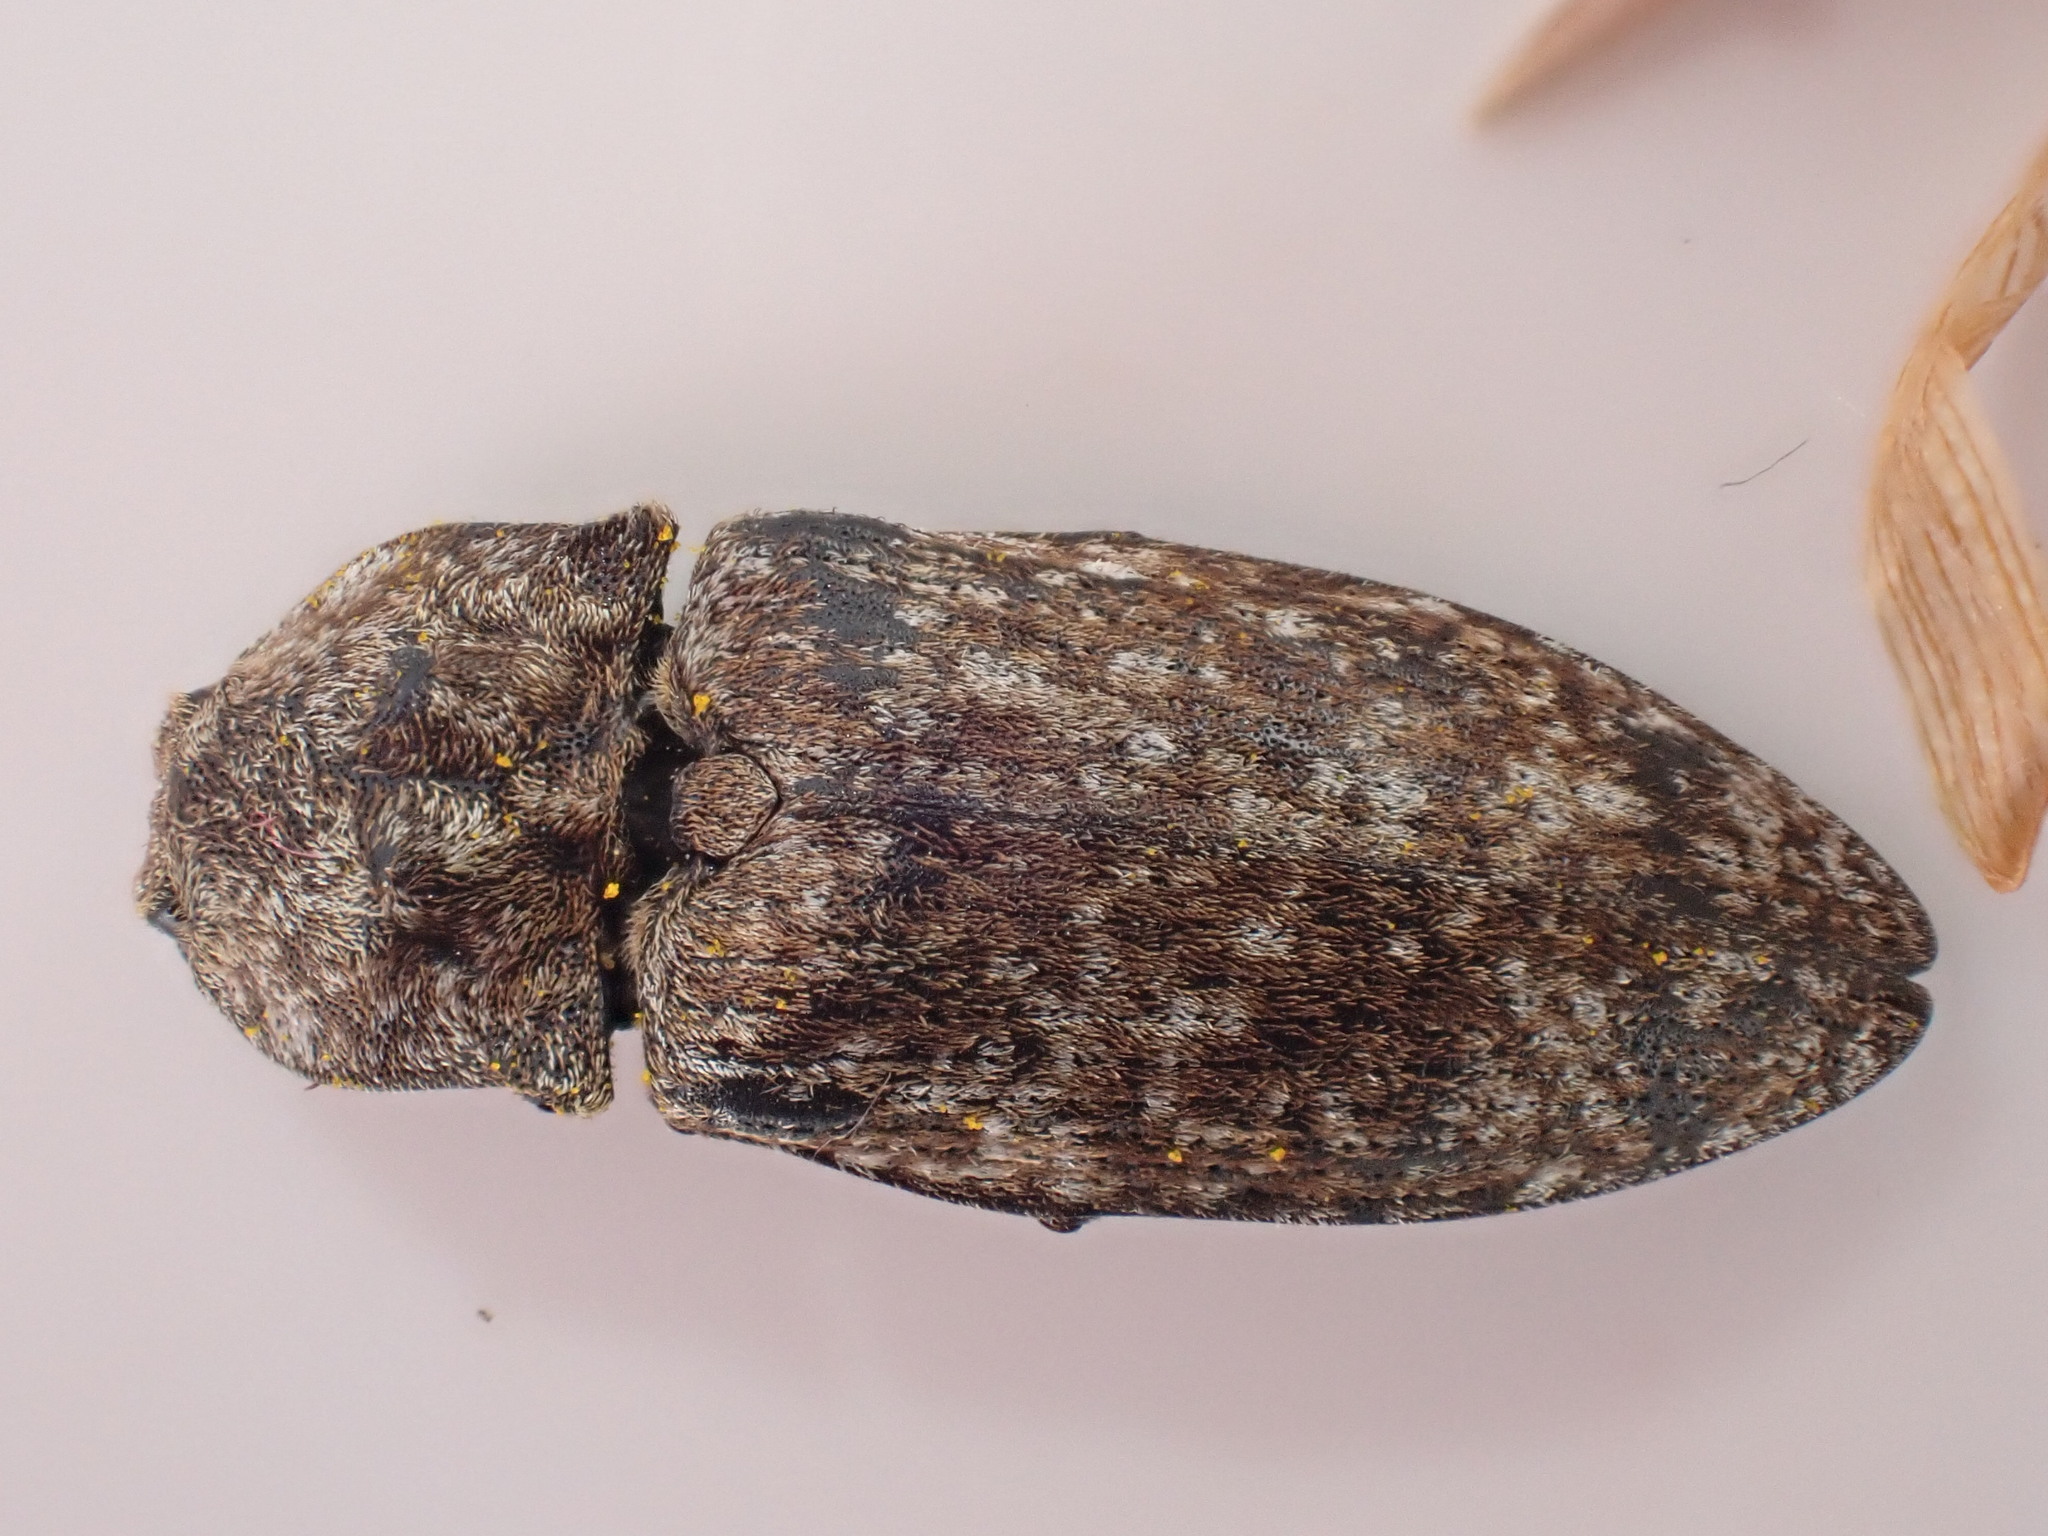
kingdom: Animalia
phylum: Arthropoda
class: Insecta
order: Coleoptera
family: Elateridae
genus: Agrypnus
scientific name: Agrypnus murinus
